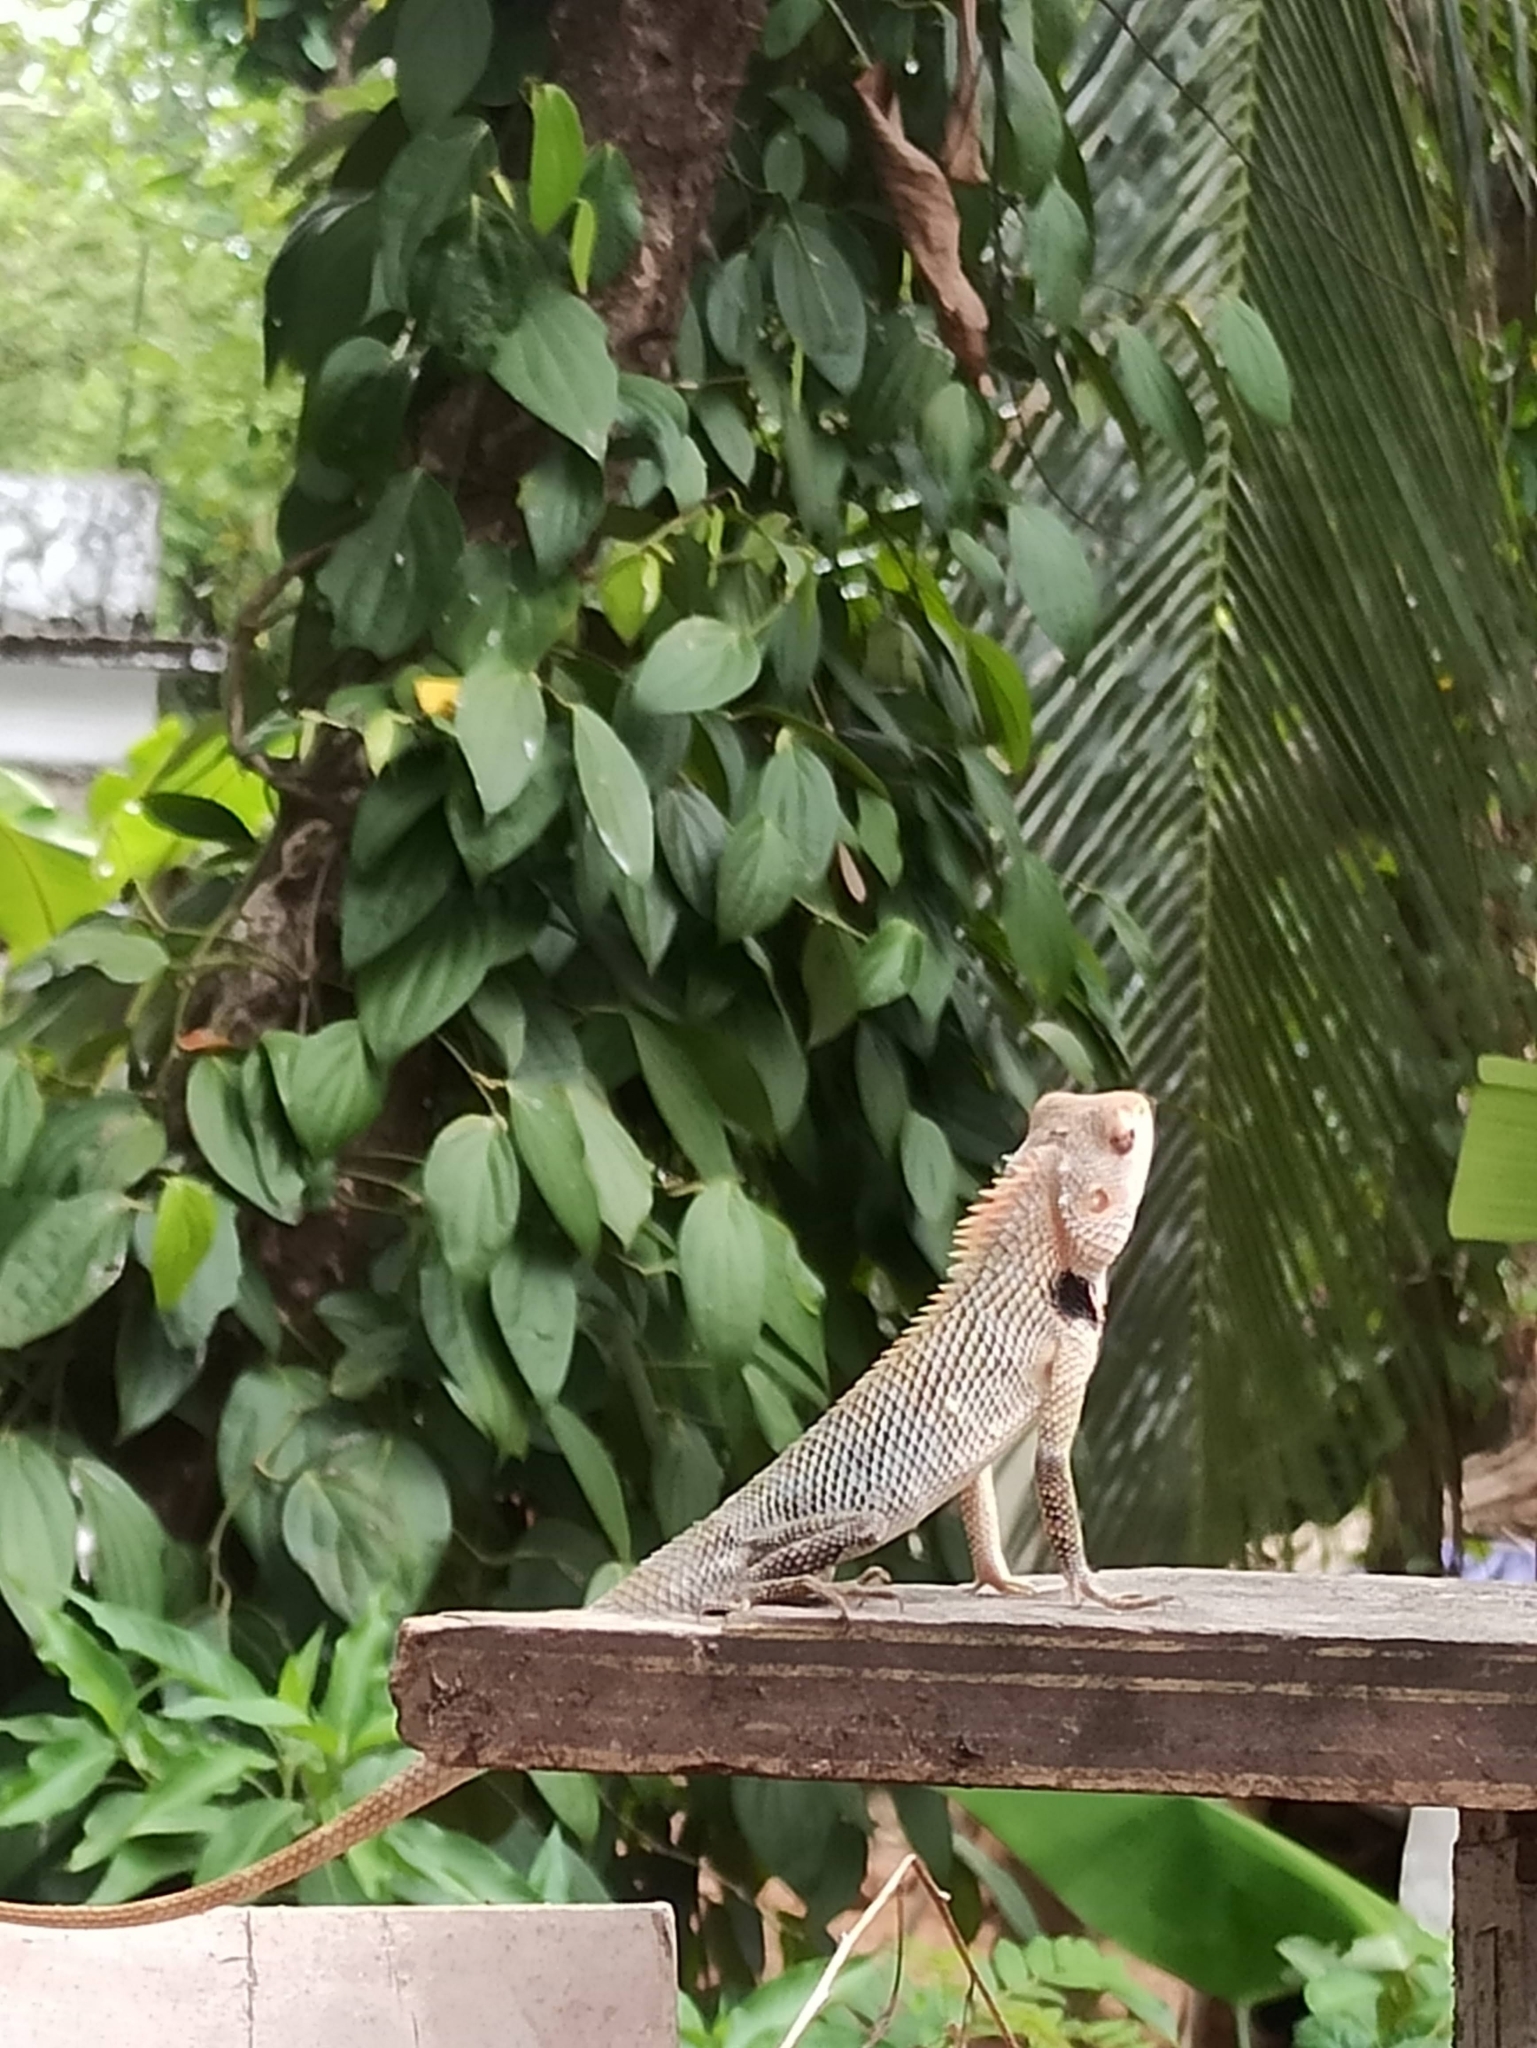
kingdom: Animalia
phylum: Chordata
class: Squamata
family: Agamidae
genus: Calotes
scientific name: Calotes versicolor
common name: Oriental garden lizard
